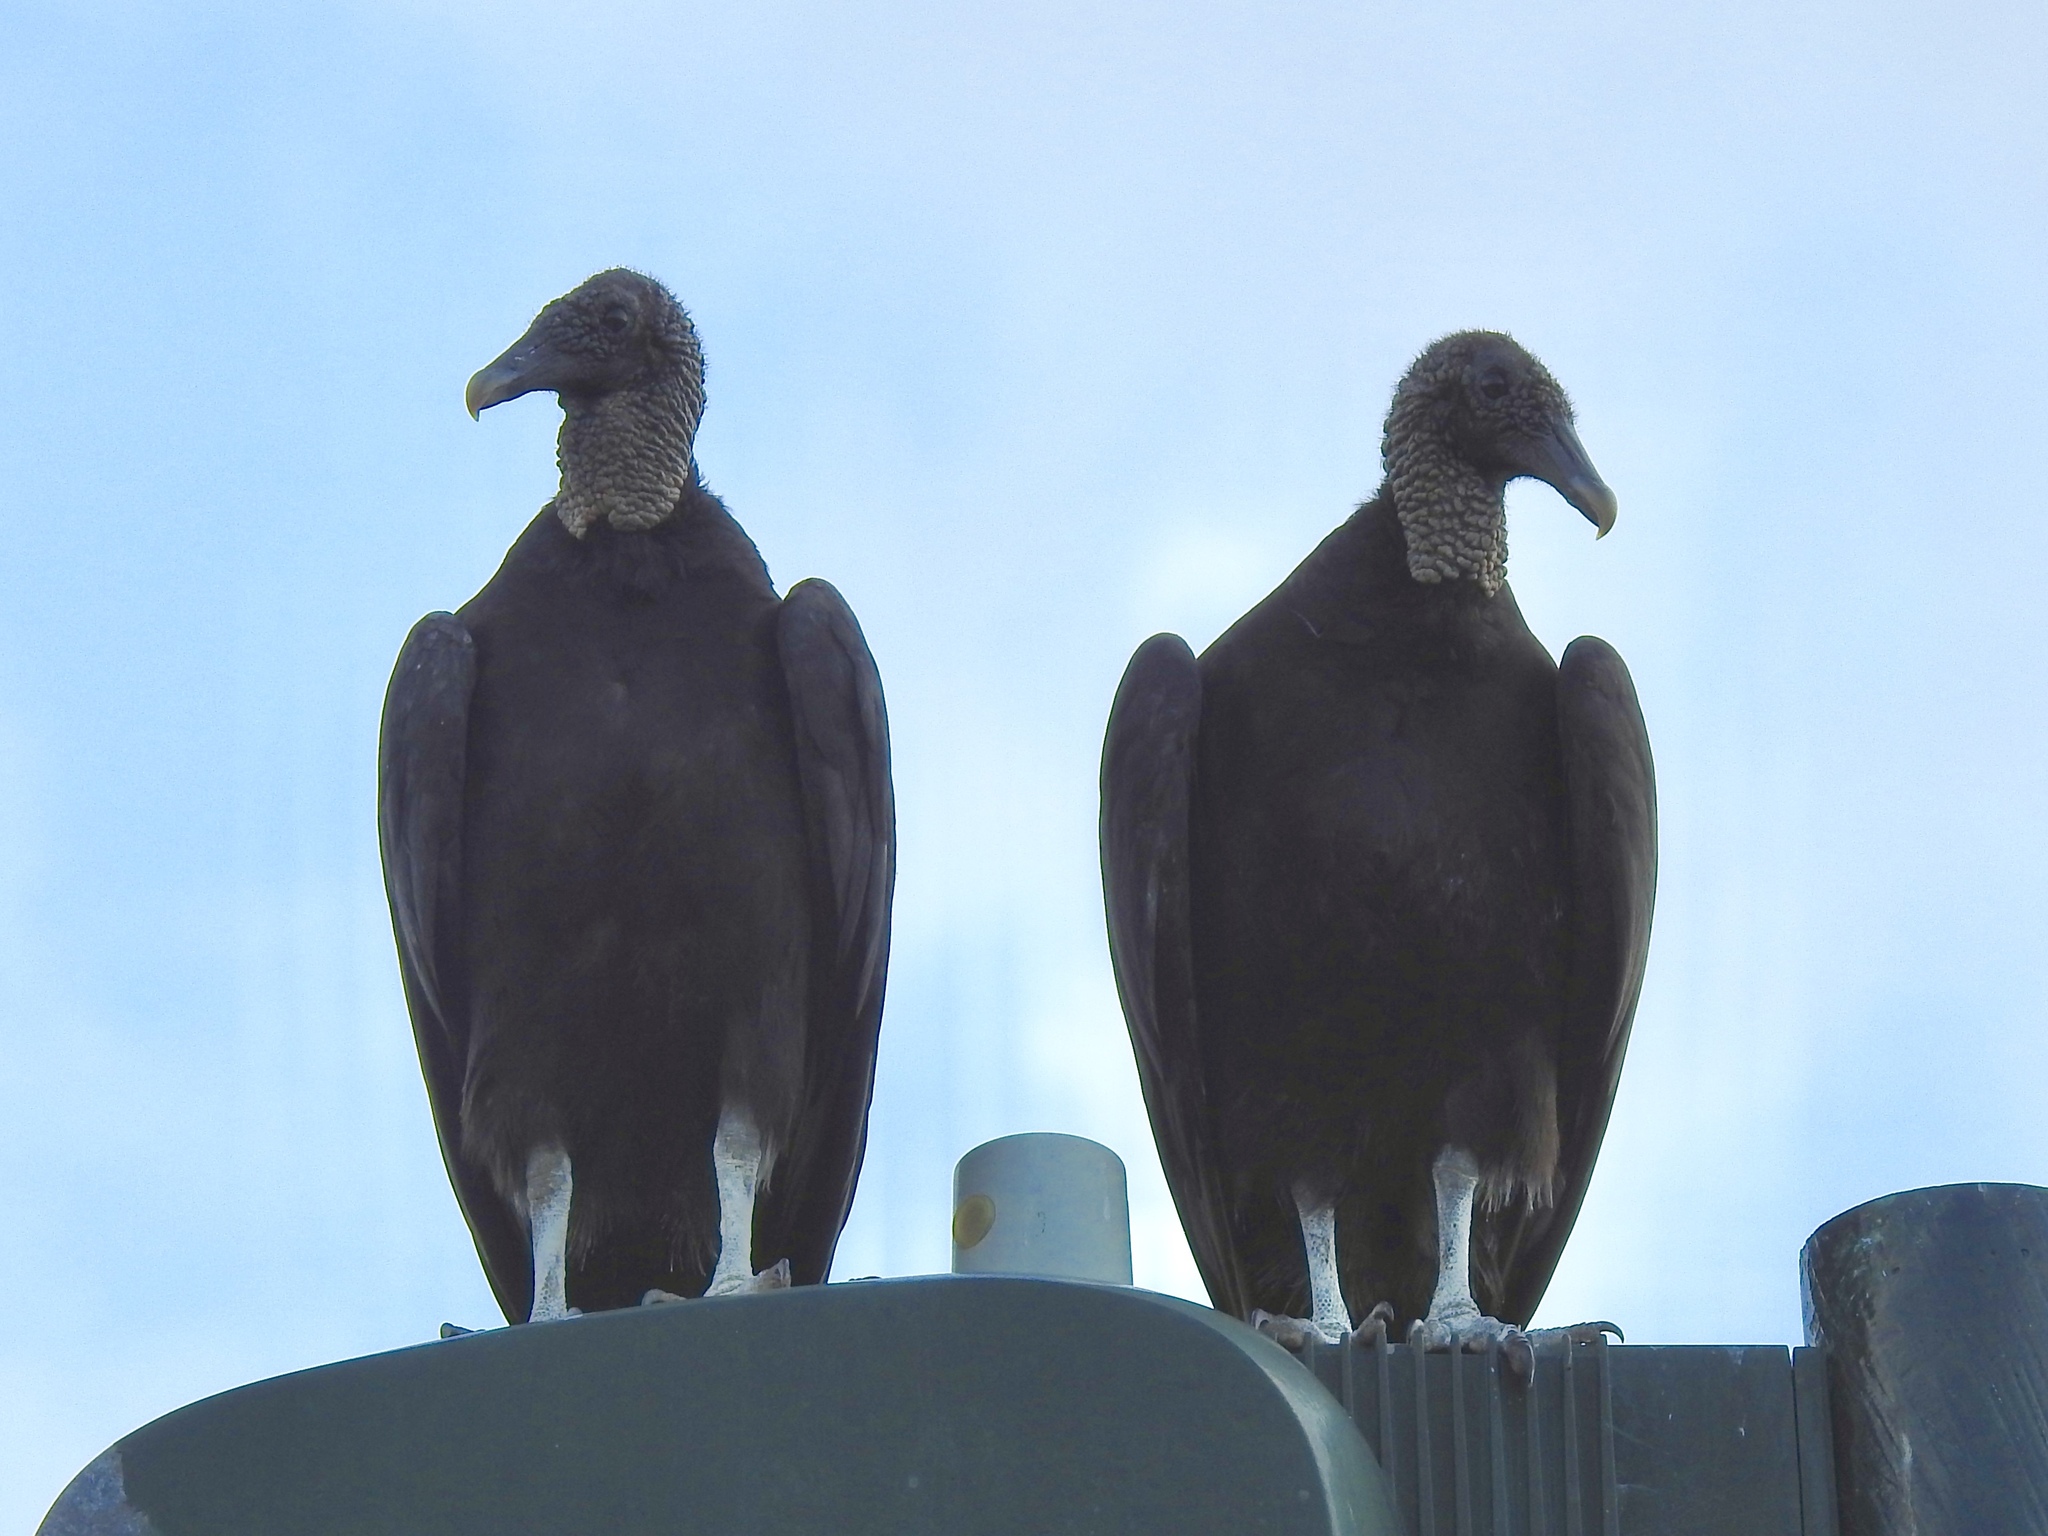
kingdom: Animalia
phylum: Chordata
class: Aves
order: Accipitriformes
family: Cathartidae
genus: Coragyps
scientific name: Coragyps atratus
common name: Black vulture
